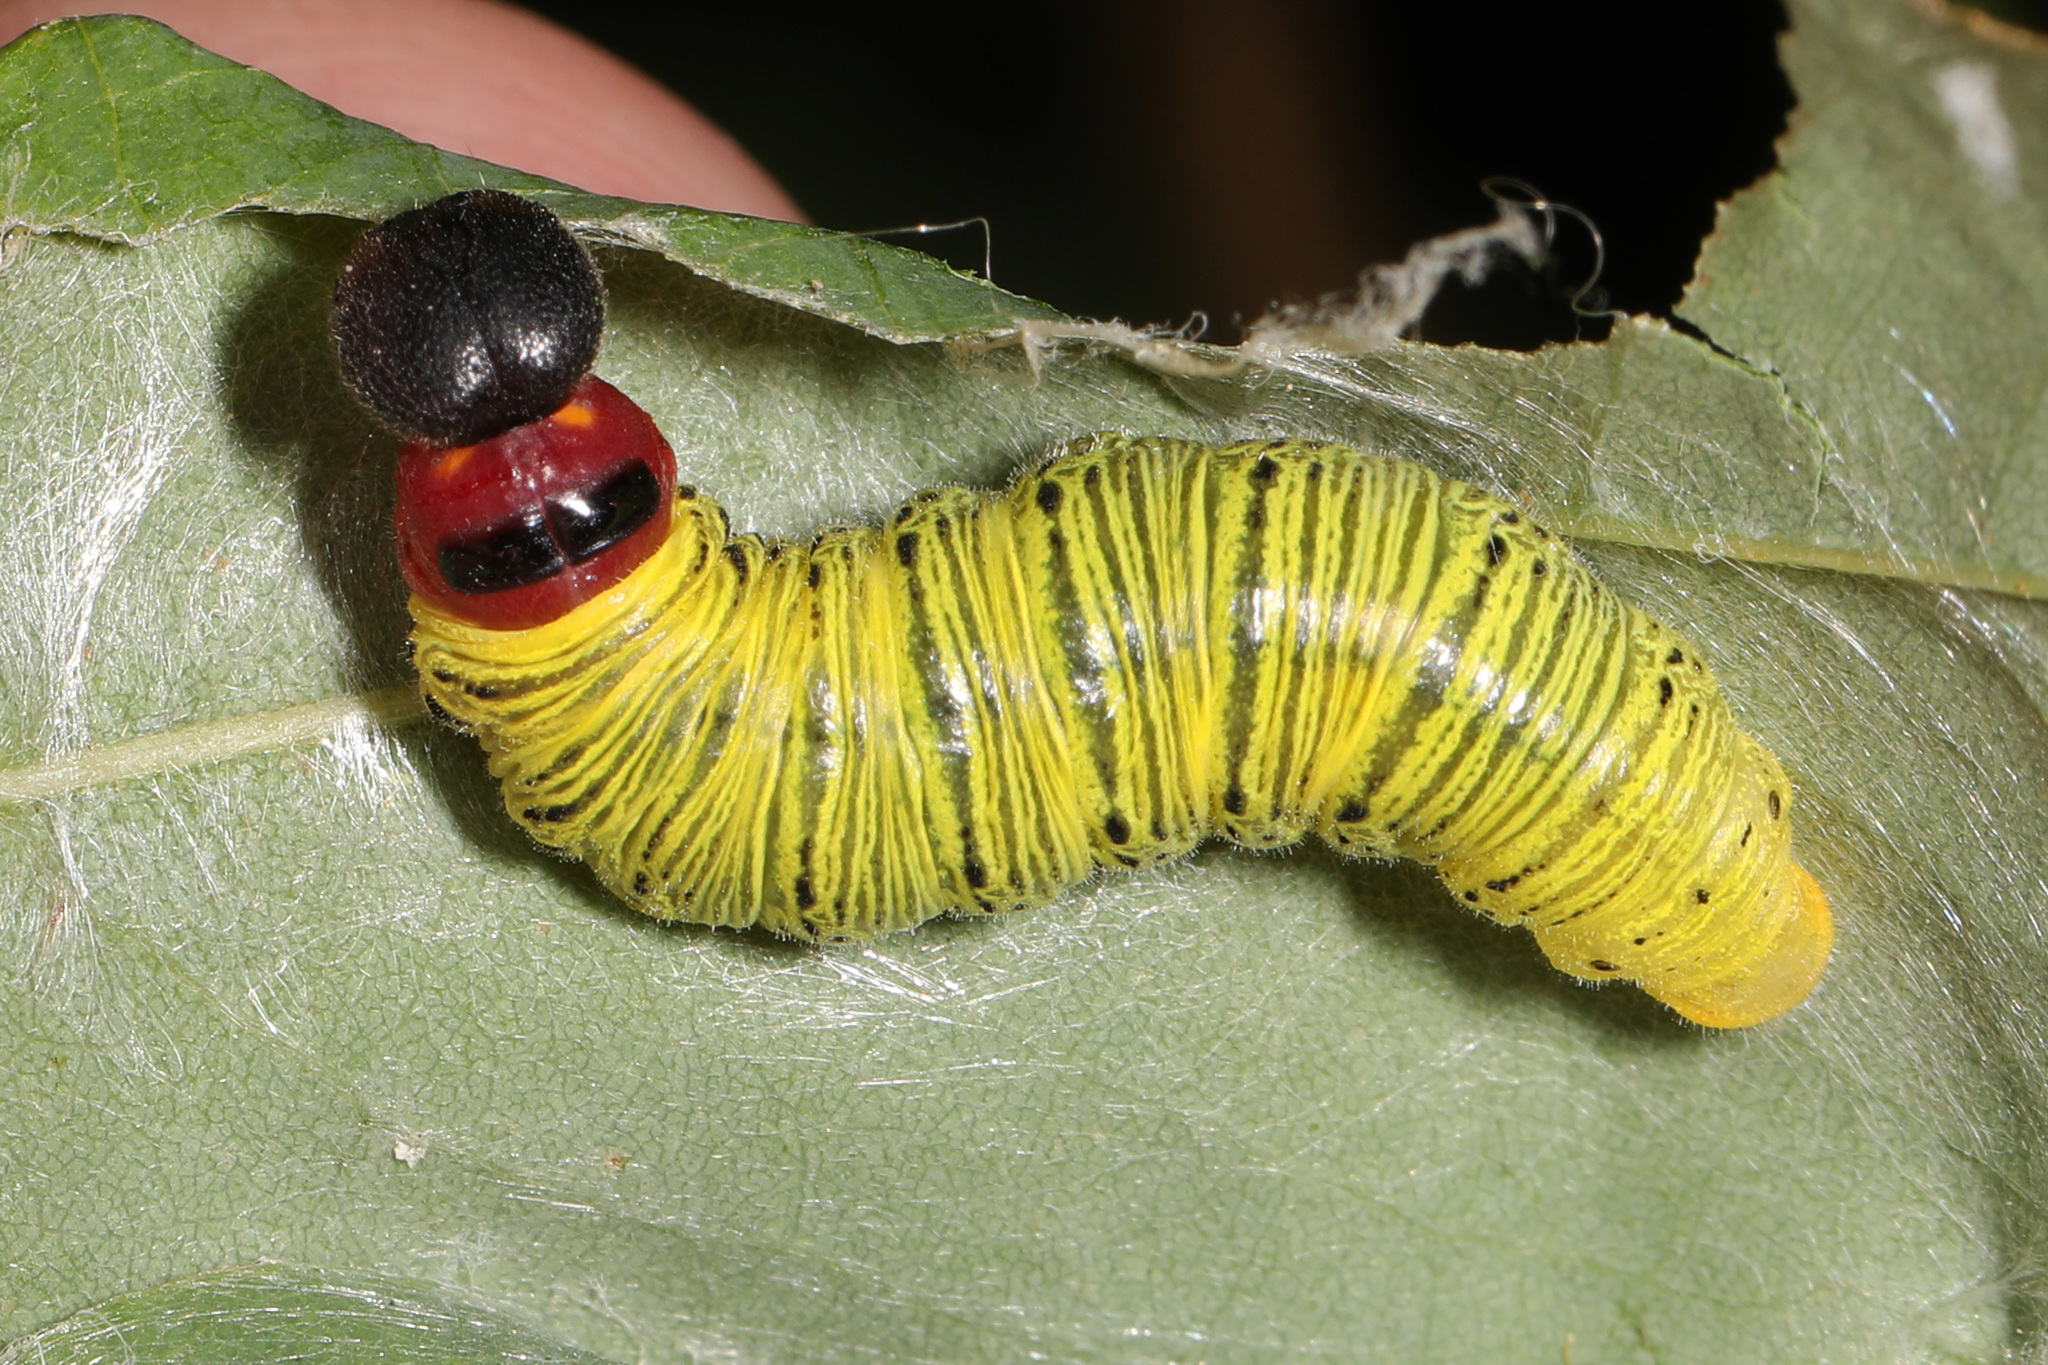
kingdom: Animalia
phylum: Arthropoda
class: Insecta
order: Lepidoptera
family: Hesperiidae
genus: Epargyreus
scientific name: Epargyreus clarus
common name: Silver-spotted skipper
